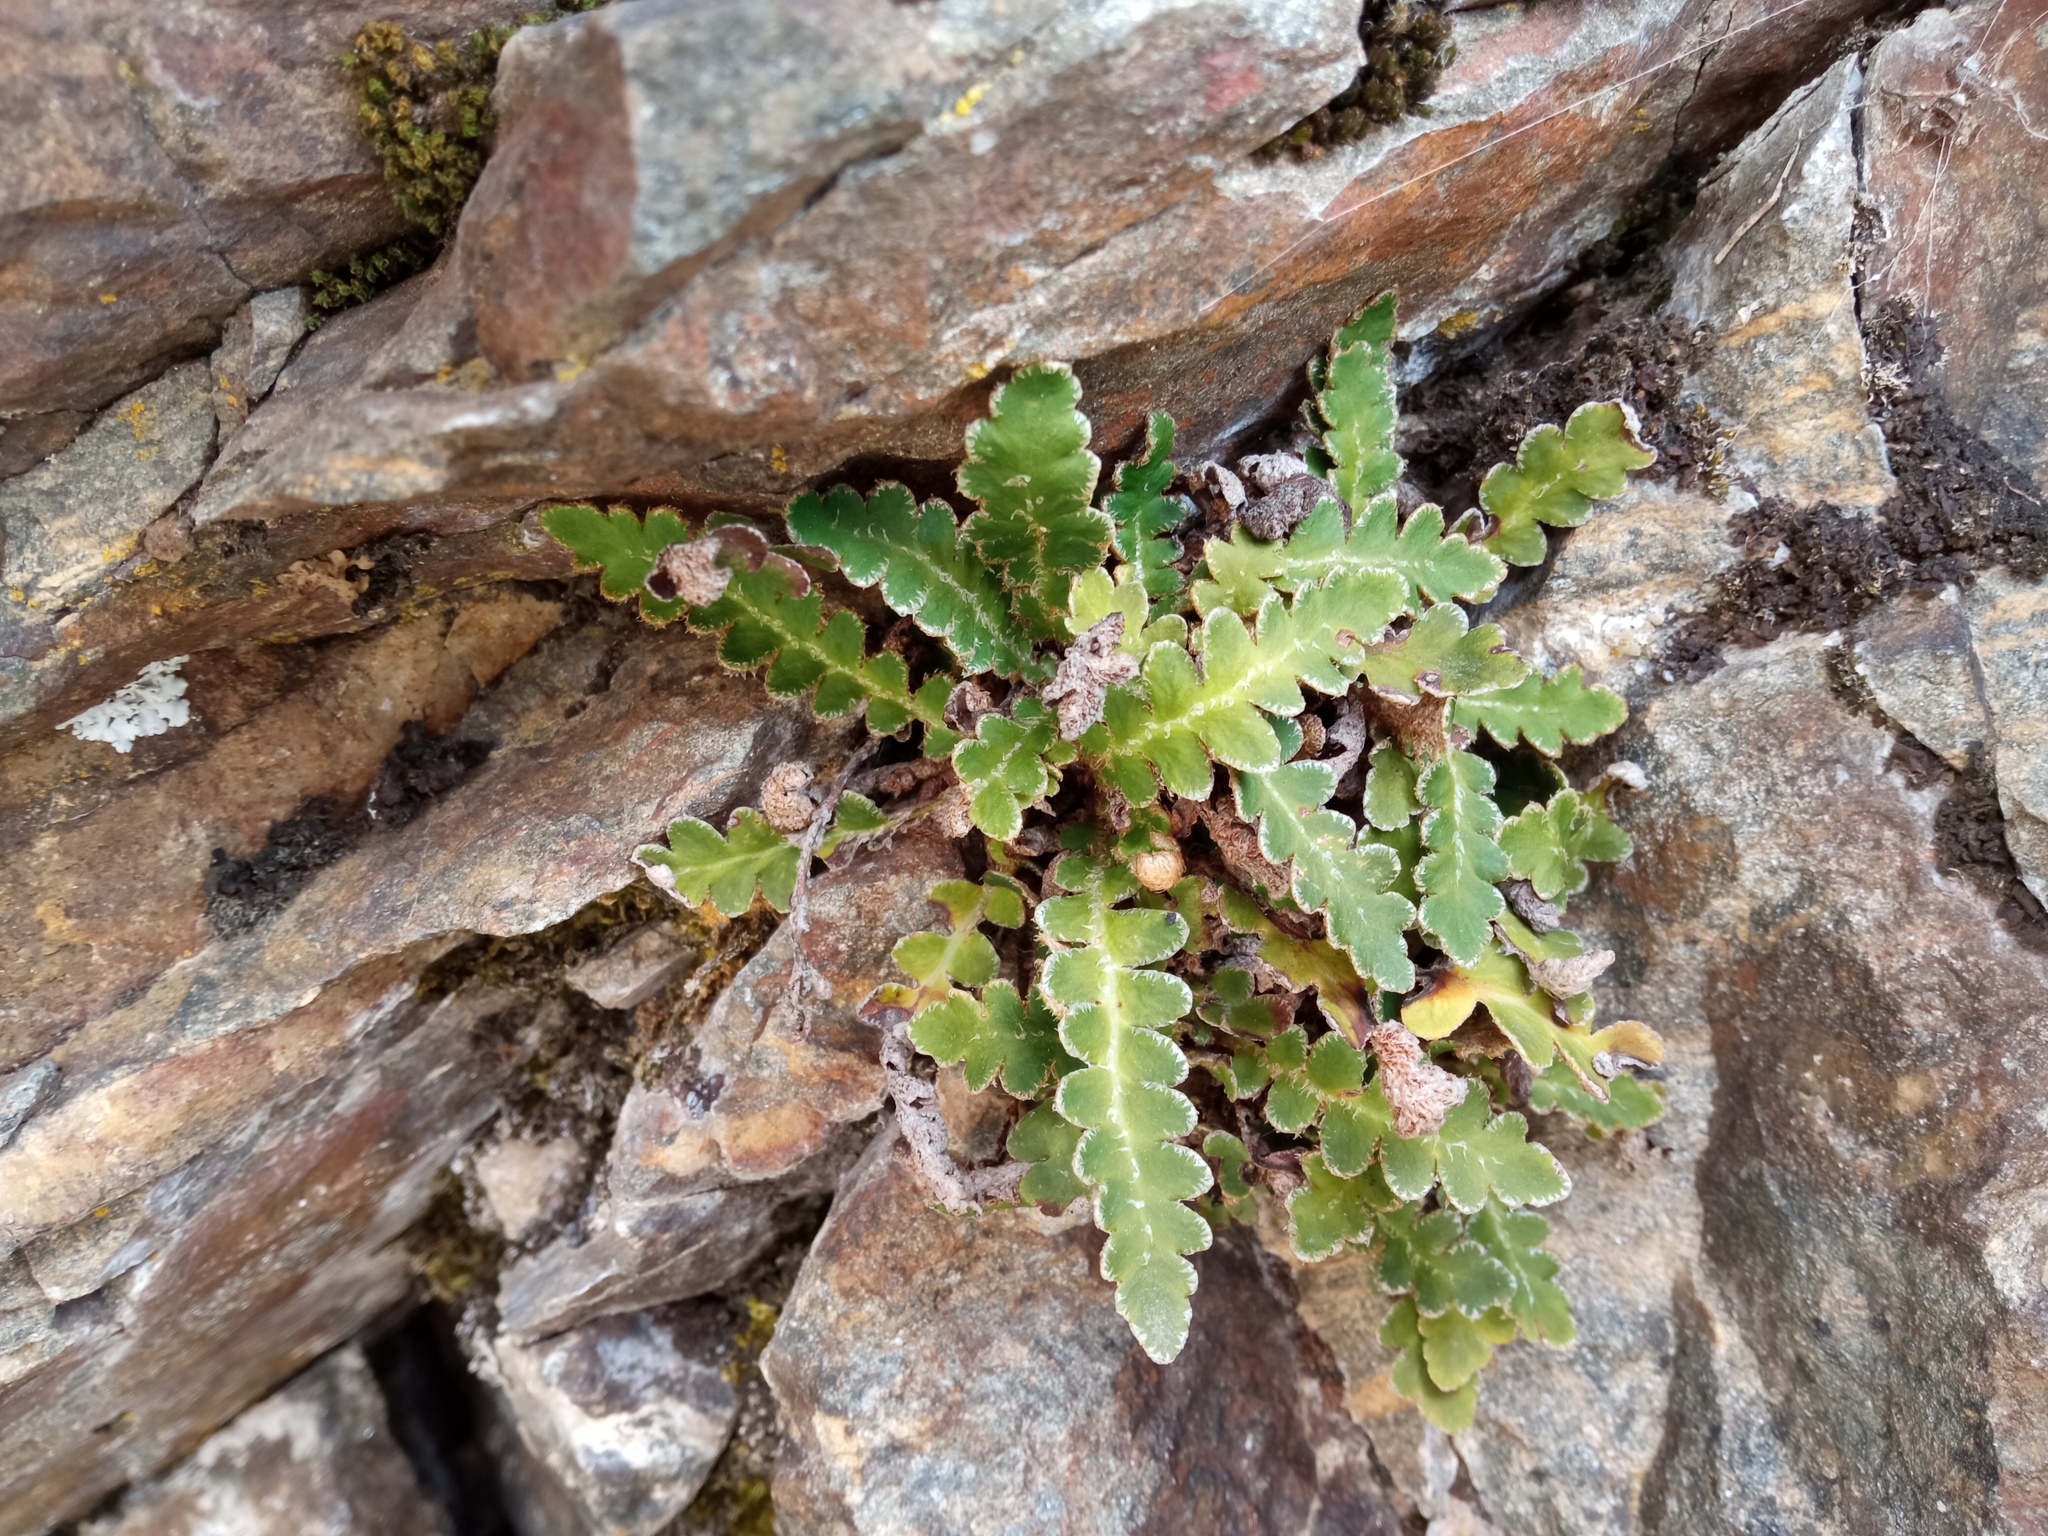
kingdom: Plantae
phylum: Tracheophyta
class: Polypodiopsida
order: Polypodiales
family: Aspleniaceae
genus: Asplenium
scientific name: Asplenium ceterach
